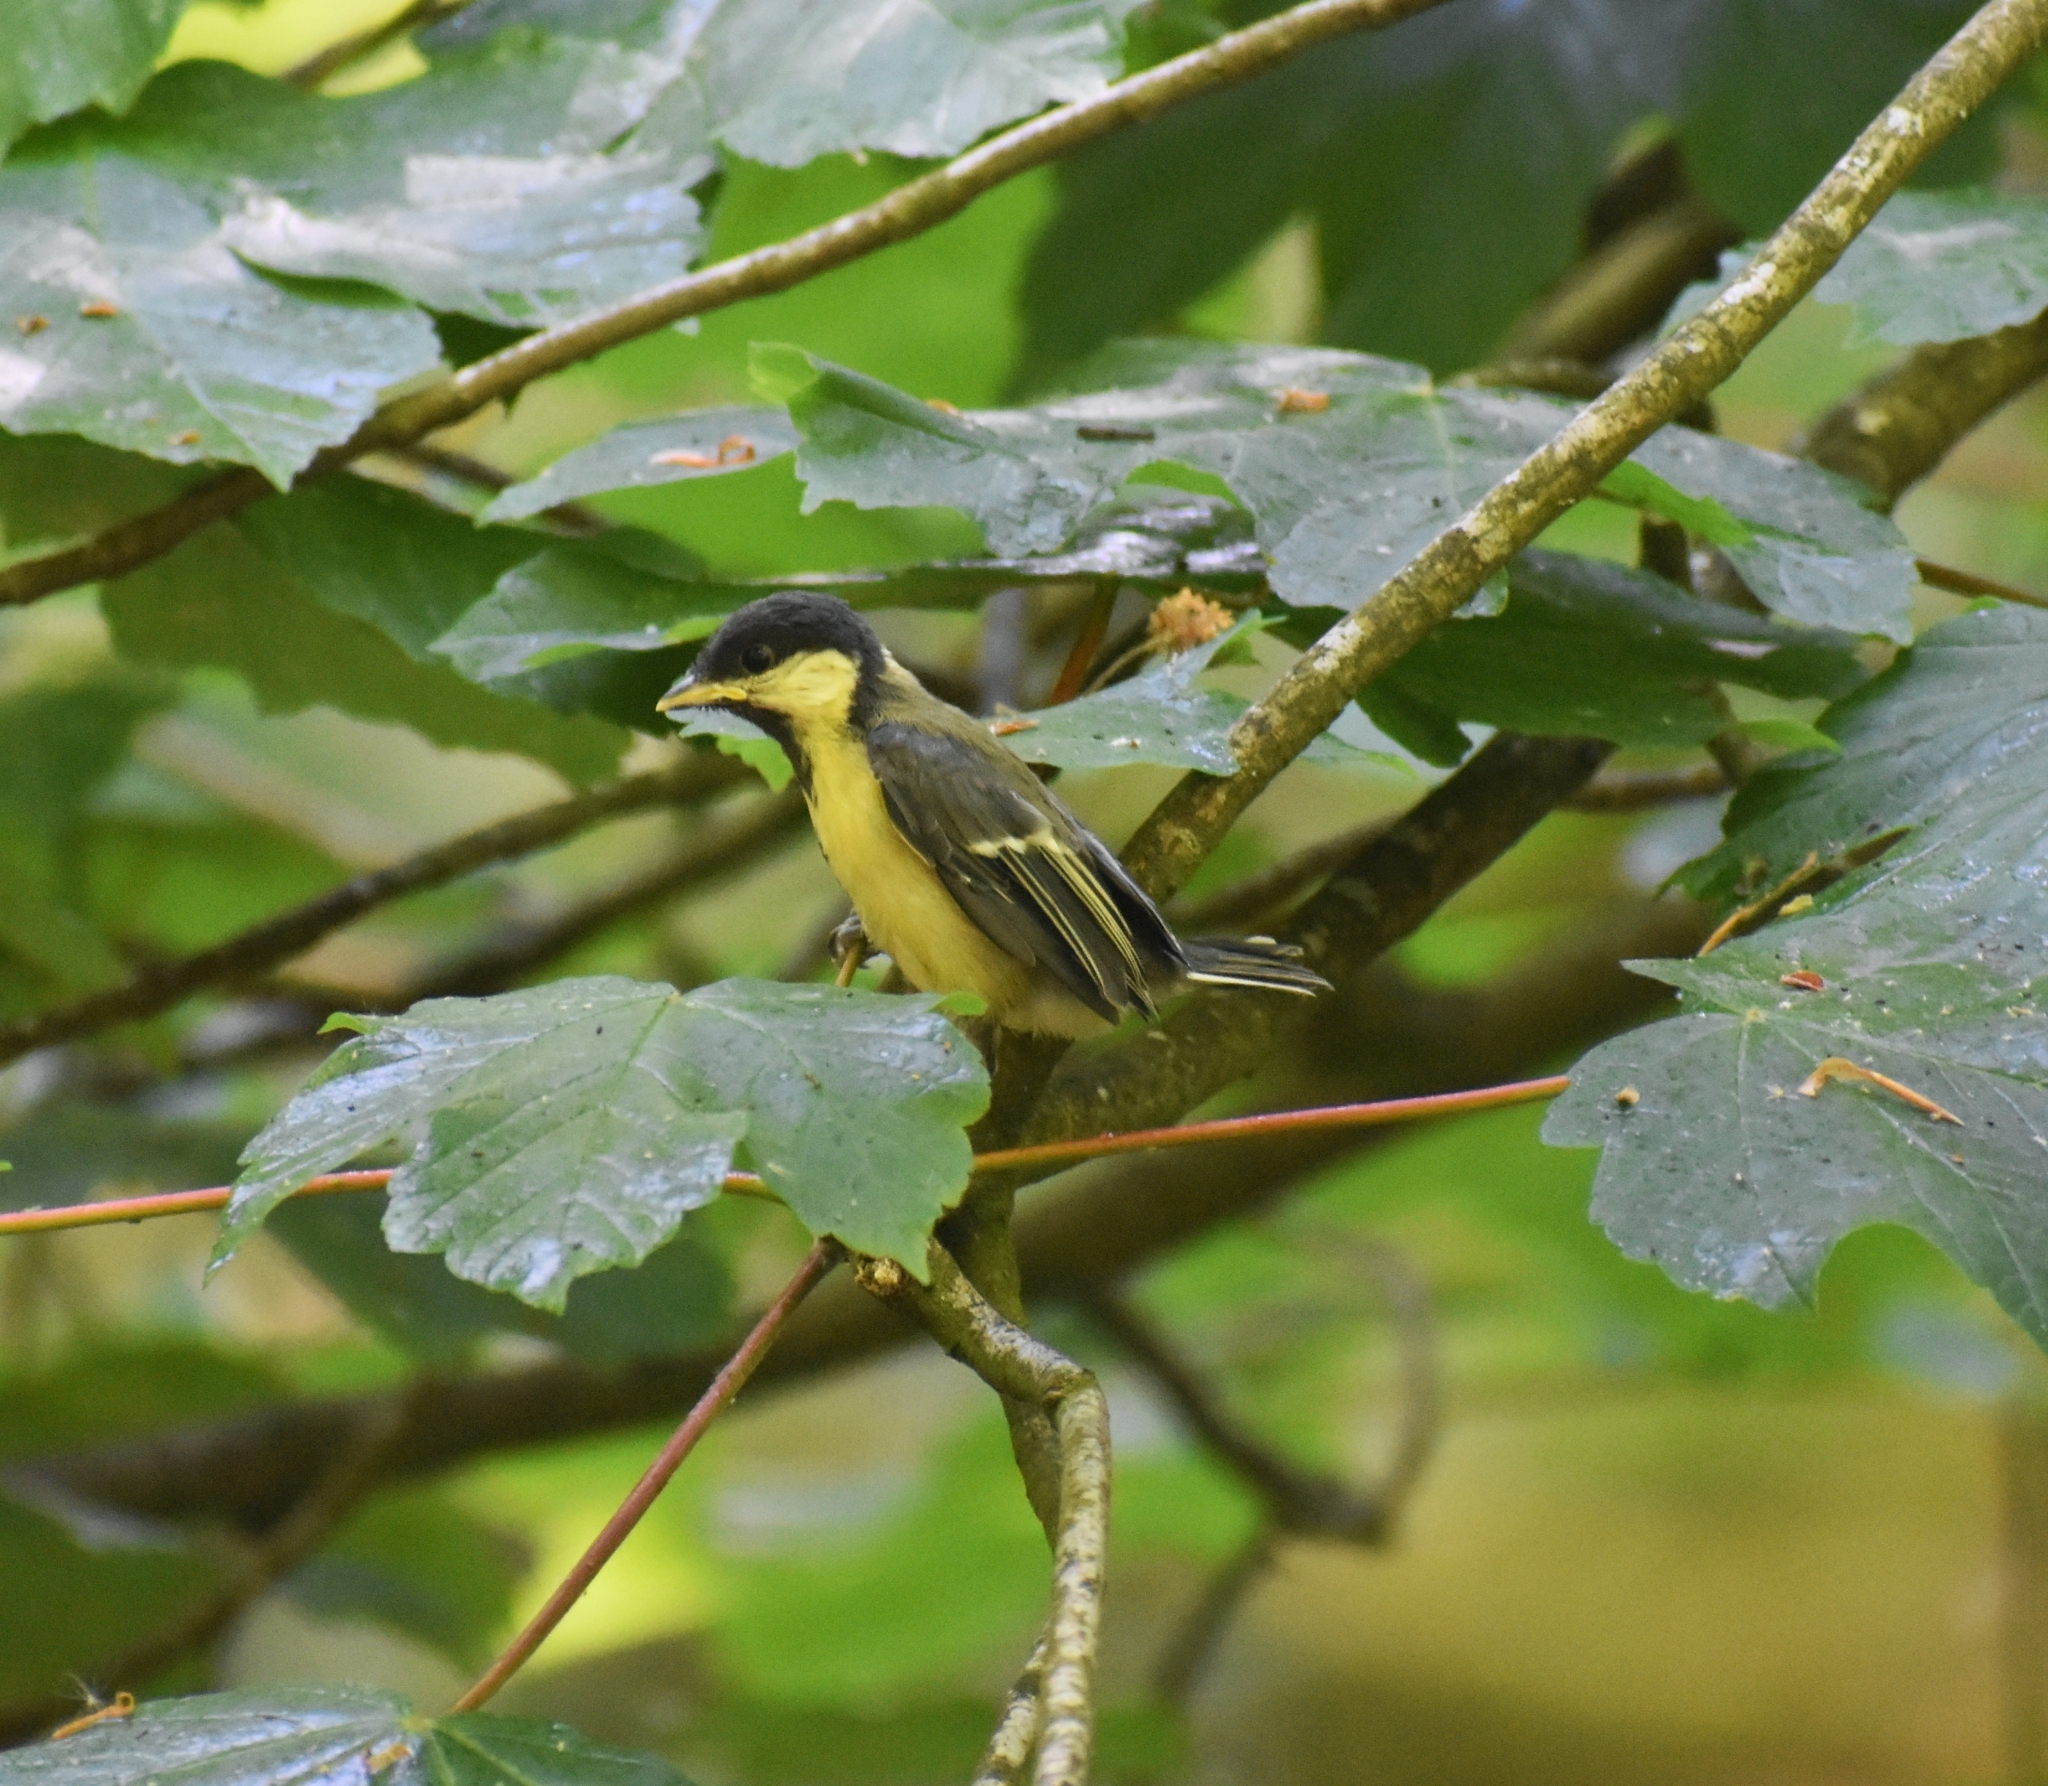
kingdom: Animalia
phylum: Chordata
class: Aves
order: Passeriformes
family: Paridae
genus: Parus
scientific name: Parus major
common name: Great tit
